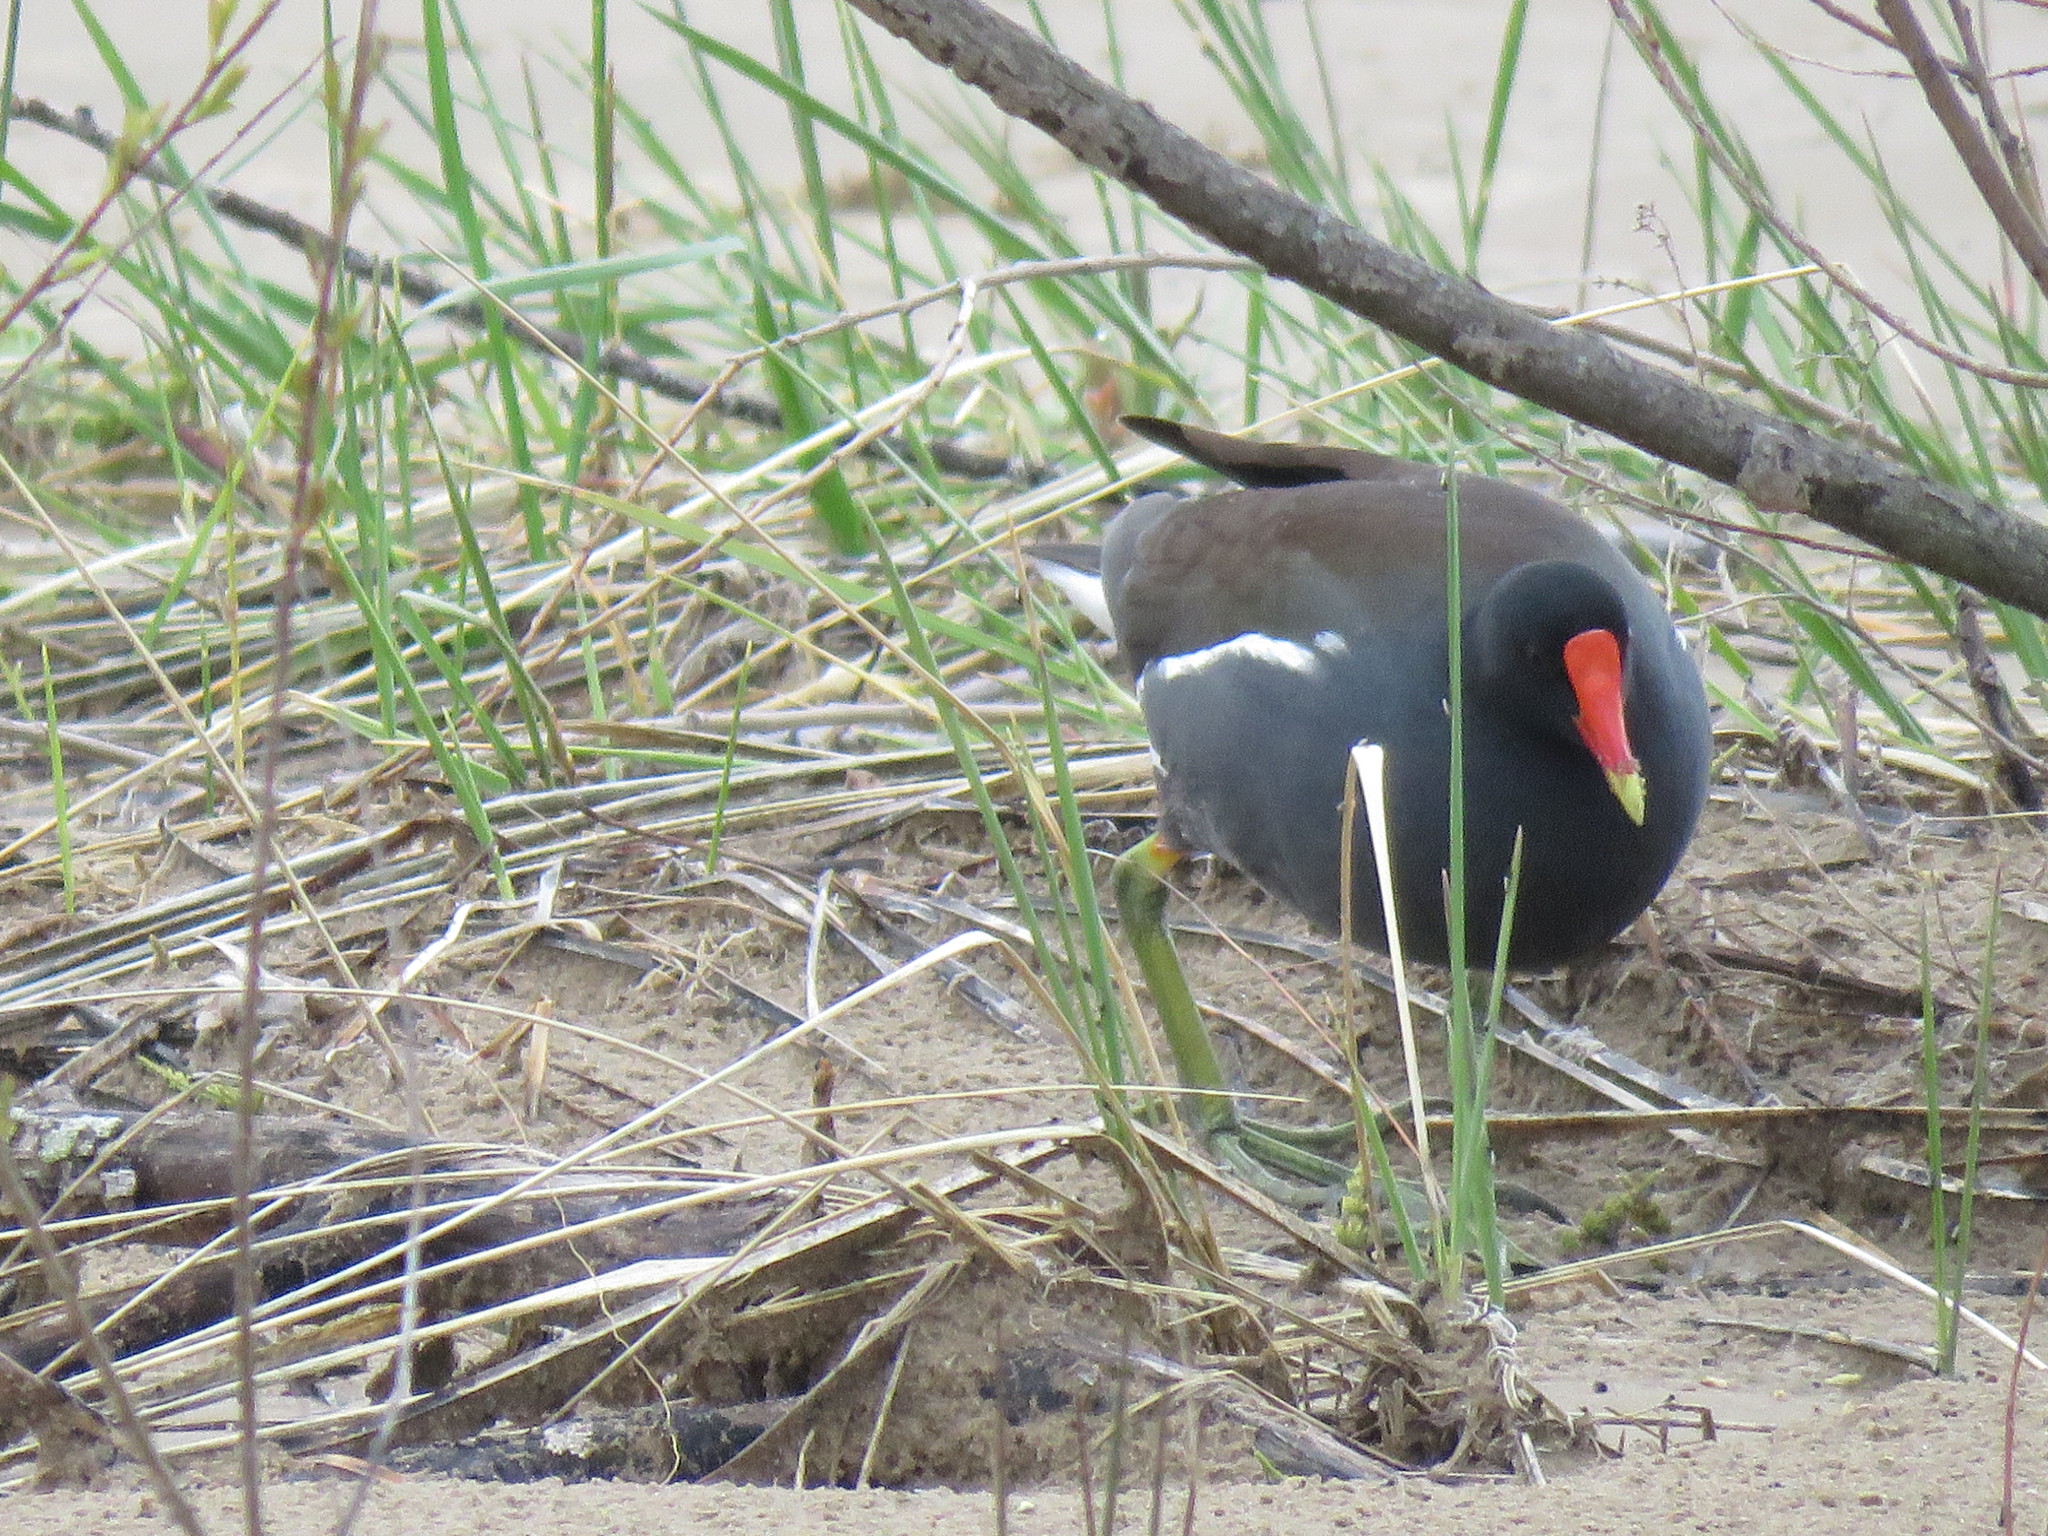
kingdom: Animalia
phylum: Chordata
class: Aves
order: Gruiformes
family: Rallidae
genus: Gallinula
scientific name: Gallinula chloropus
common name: Common moorhen
